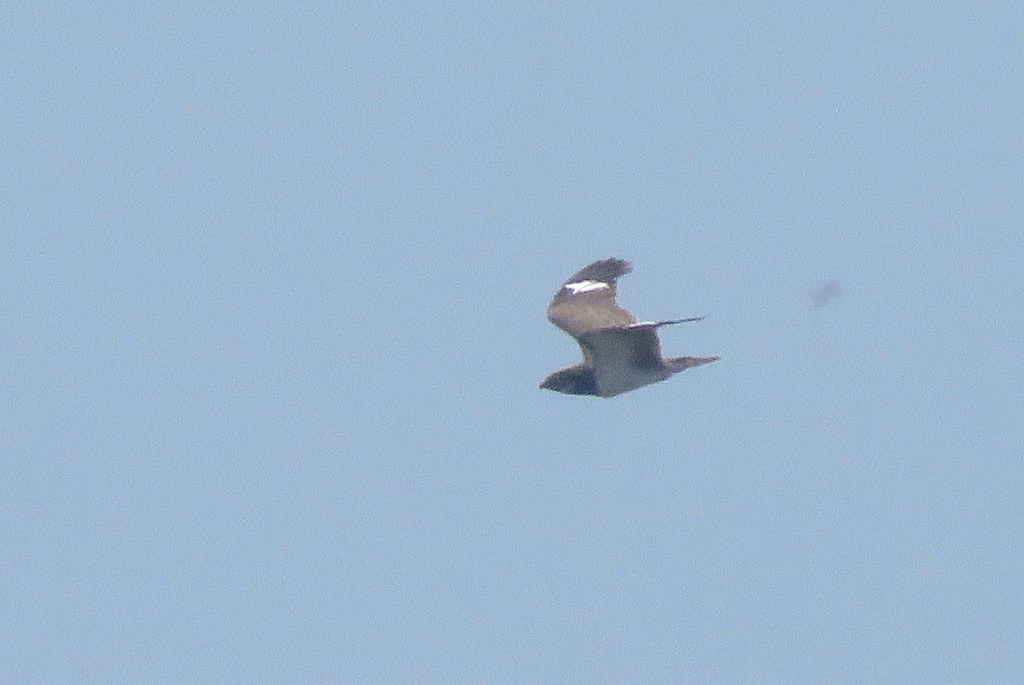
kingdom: Animalia
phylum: Chordata
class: Aves
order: Caprimulgiformes
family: Caprimulgidae
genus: Chordeiles
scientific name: Chordeiles nacunda
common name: Nacunda nighthawk
